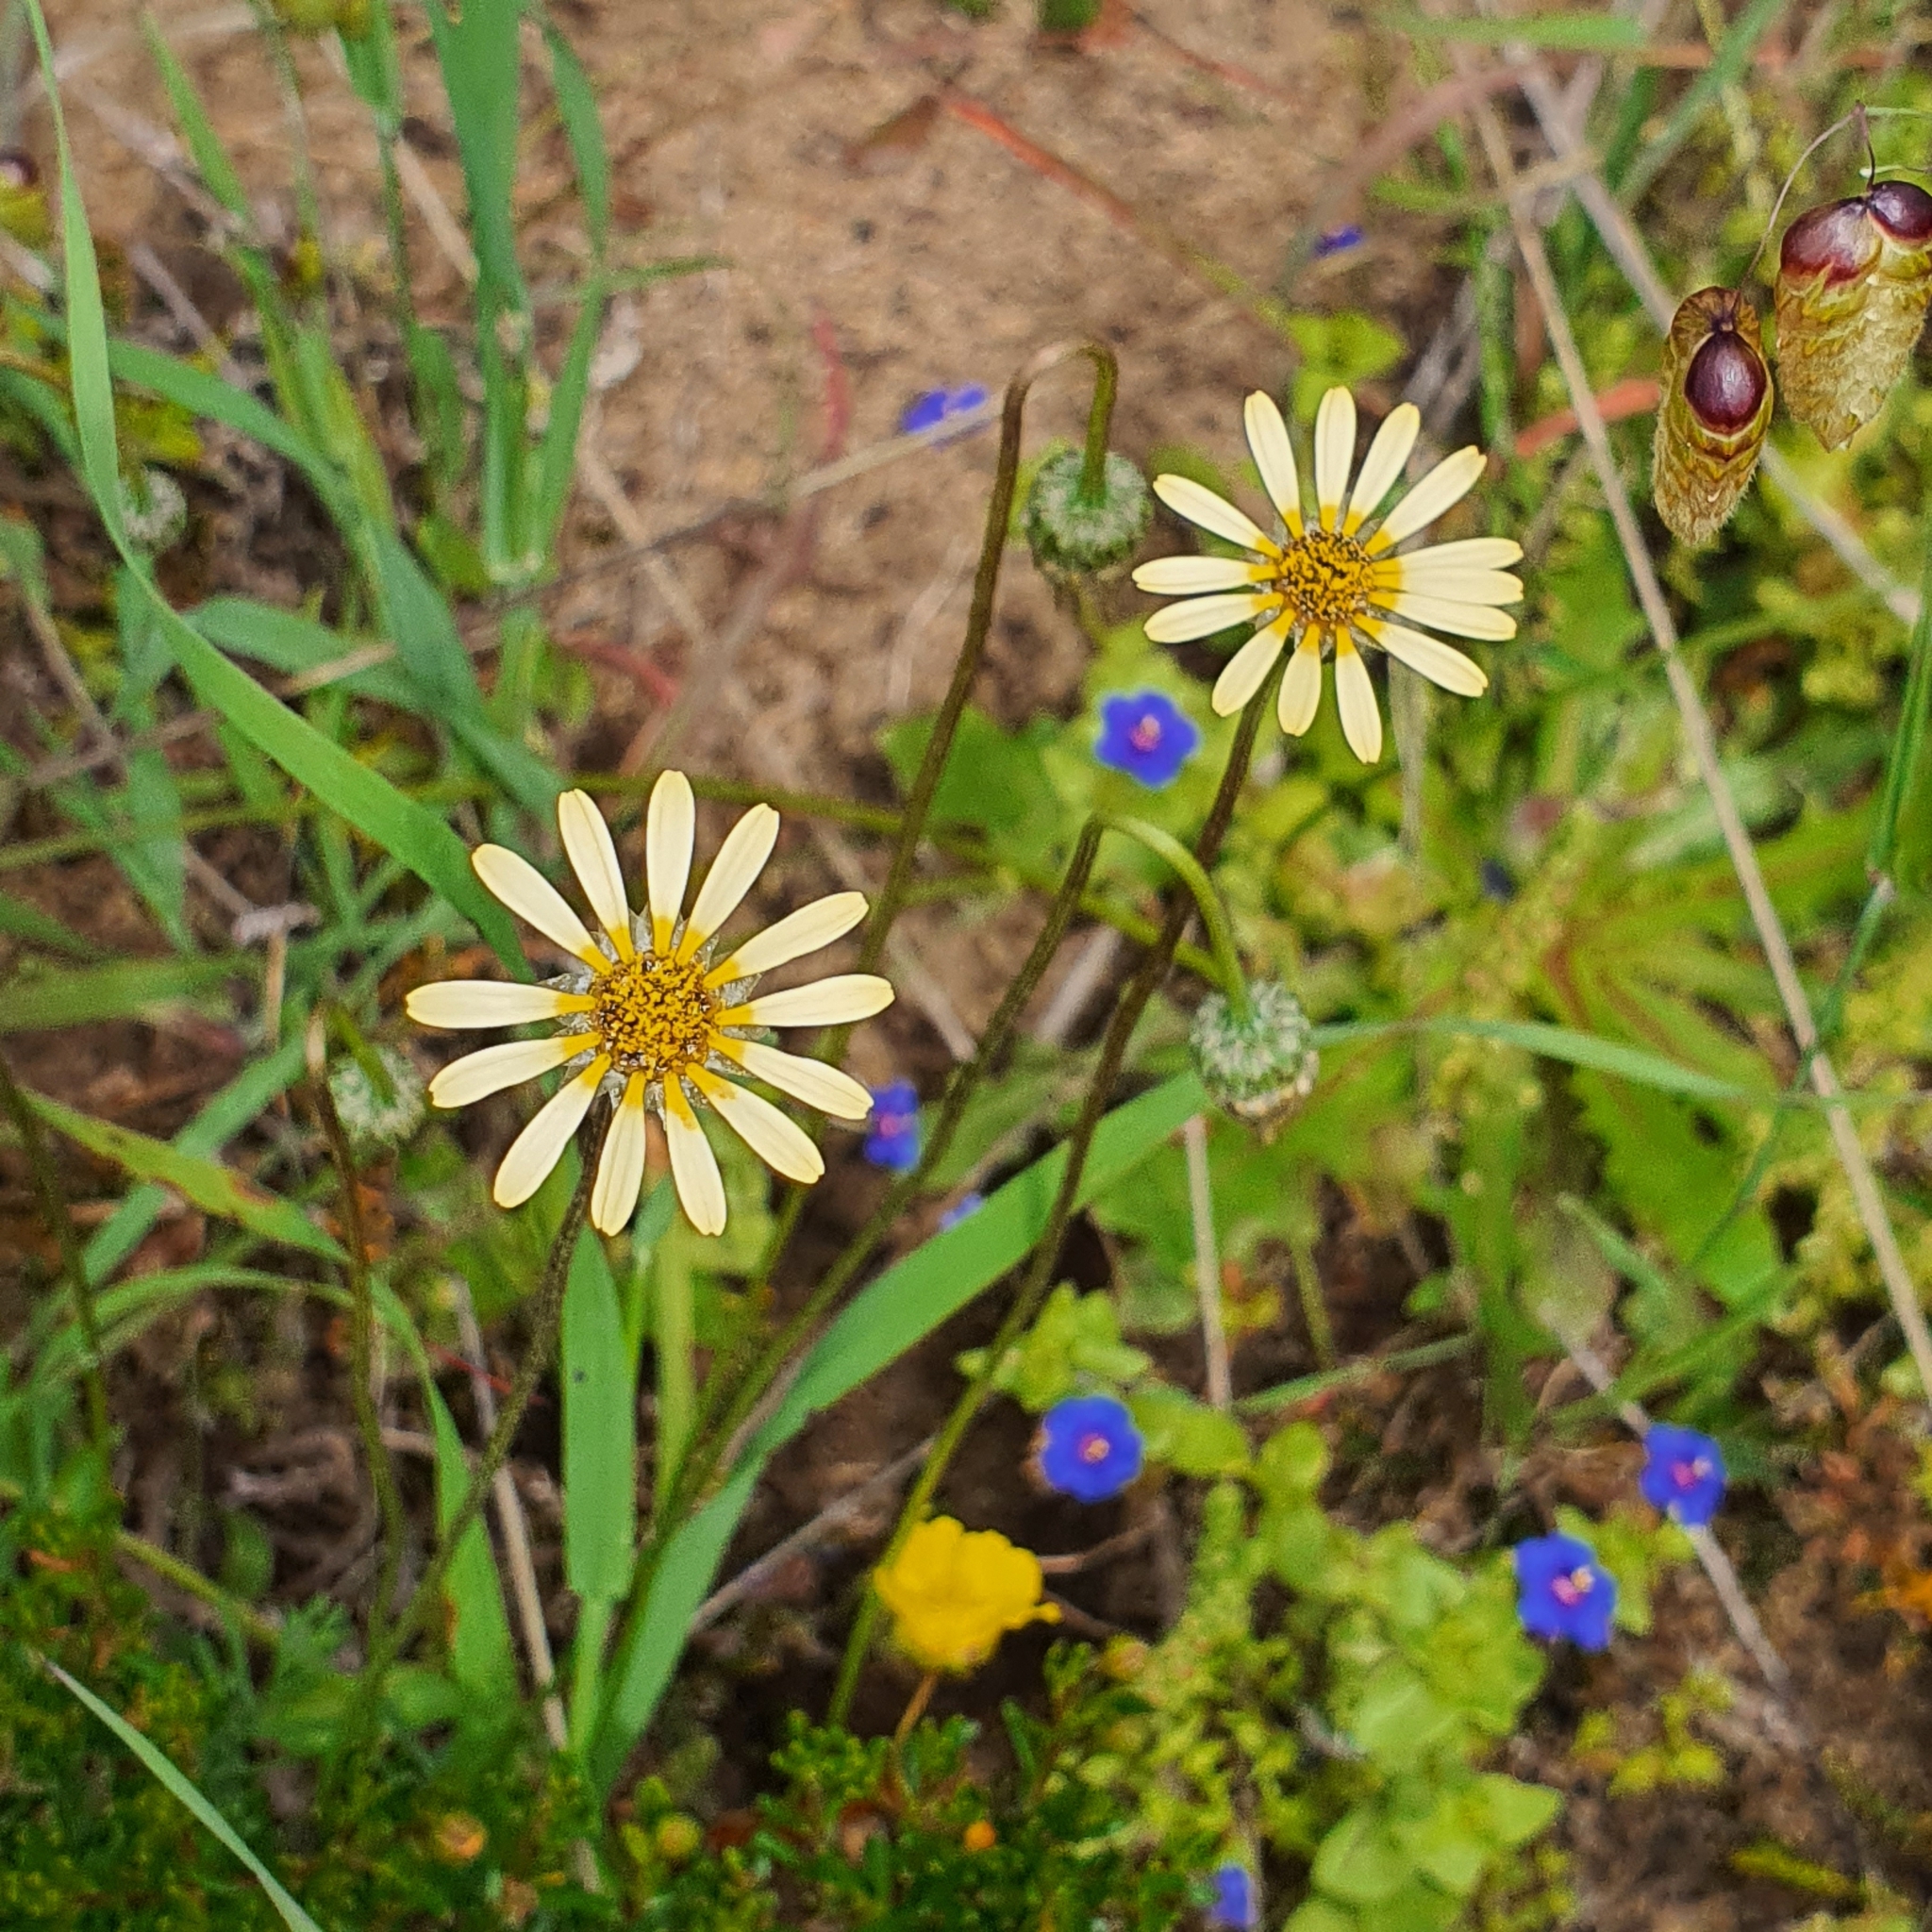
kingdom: Plantae
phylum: Tracheophyta
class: Magnoliopsida
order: Asterales
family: Asteraceae
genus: Ursinia
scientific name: Ursinia anthemoides
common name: Ursinia
